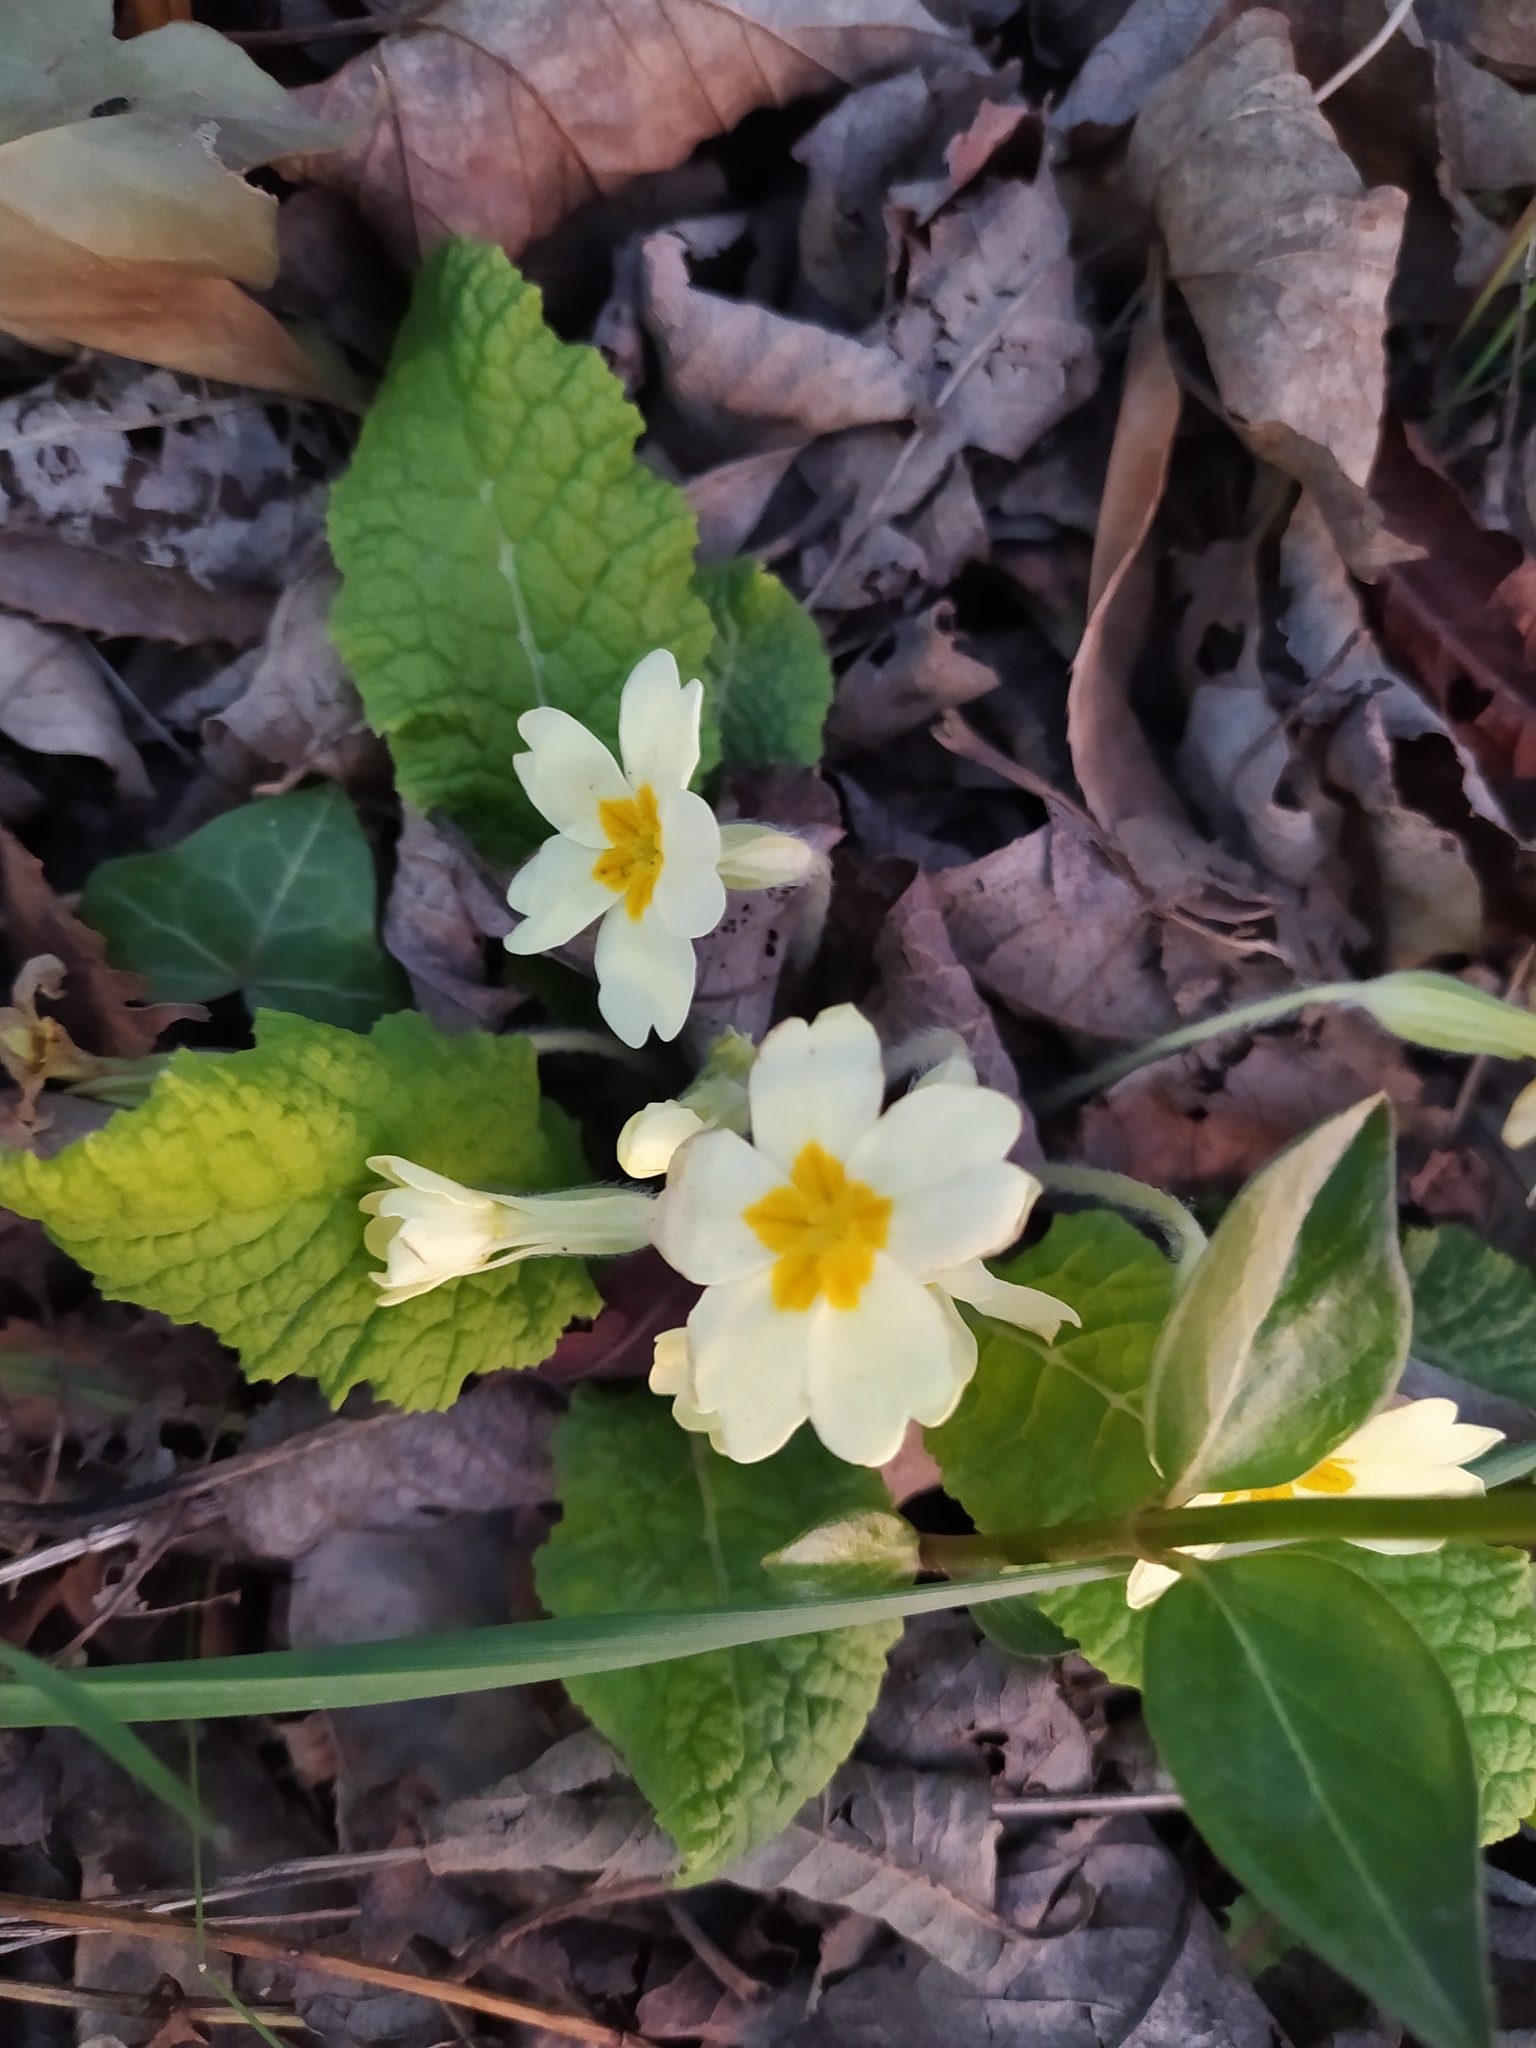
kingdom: Plantae
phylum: Tracheophyta
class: Magnoliopsida
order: Ericales
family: Primulaceae
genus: Primula
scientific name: Primula vulgaris
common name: Primrose
